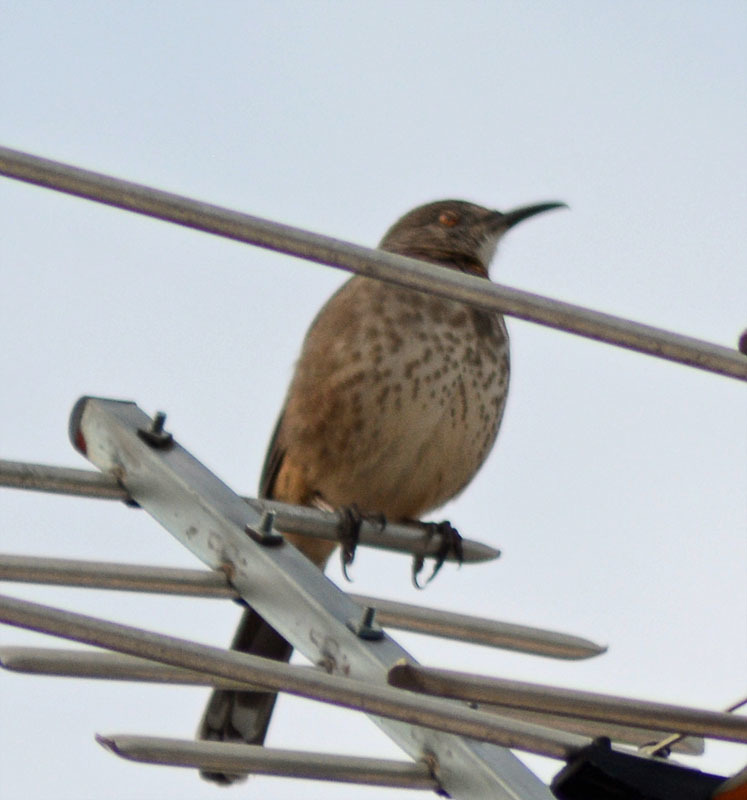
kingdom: Animalia
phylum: Chordata
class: Aves
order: Passeriformes
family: Mimidae
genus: Toxostoma
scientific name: Toxostoma curvirostre
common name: Curve-billed thrasher
